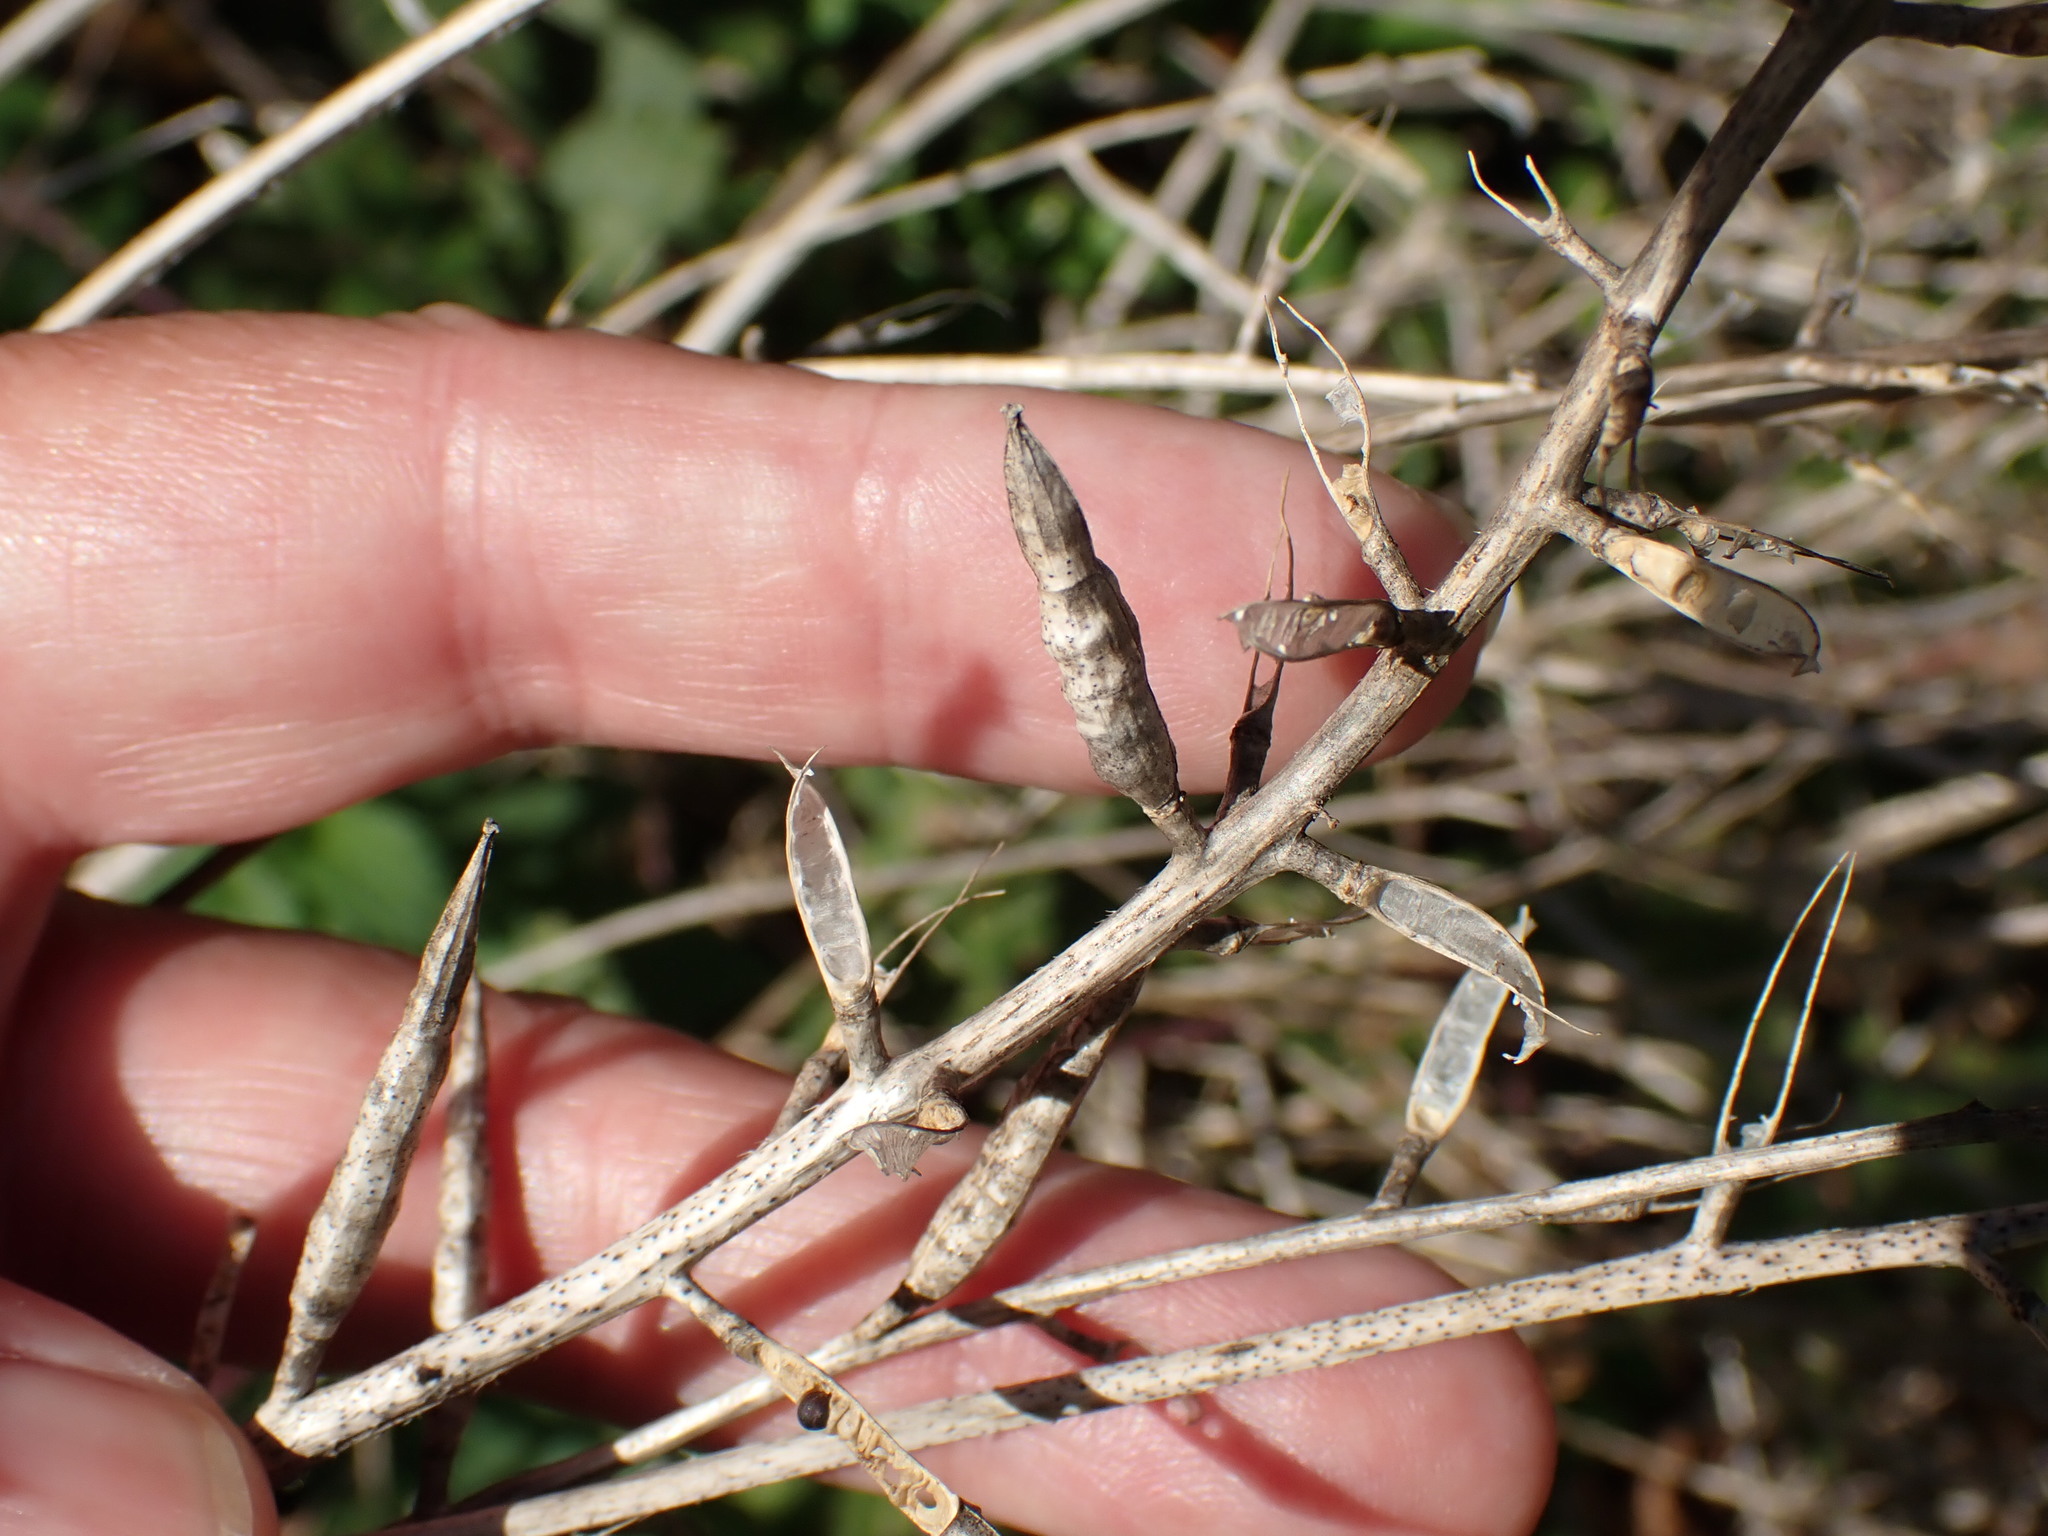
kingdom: Plantae
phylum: Tracheophyta
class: Magnoliopsida
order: Brassicales
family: Brassicaceae
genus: Brassica
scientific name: Brassica napus
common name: Rape
